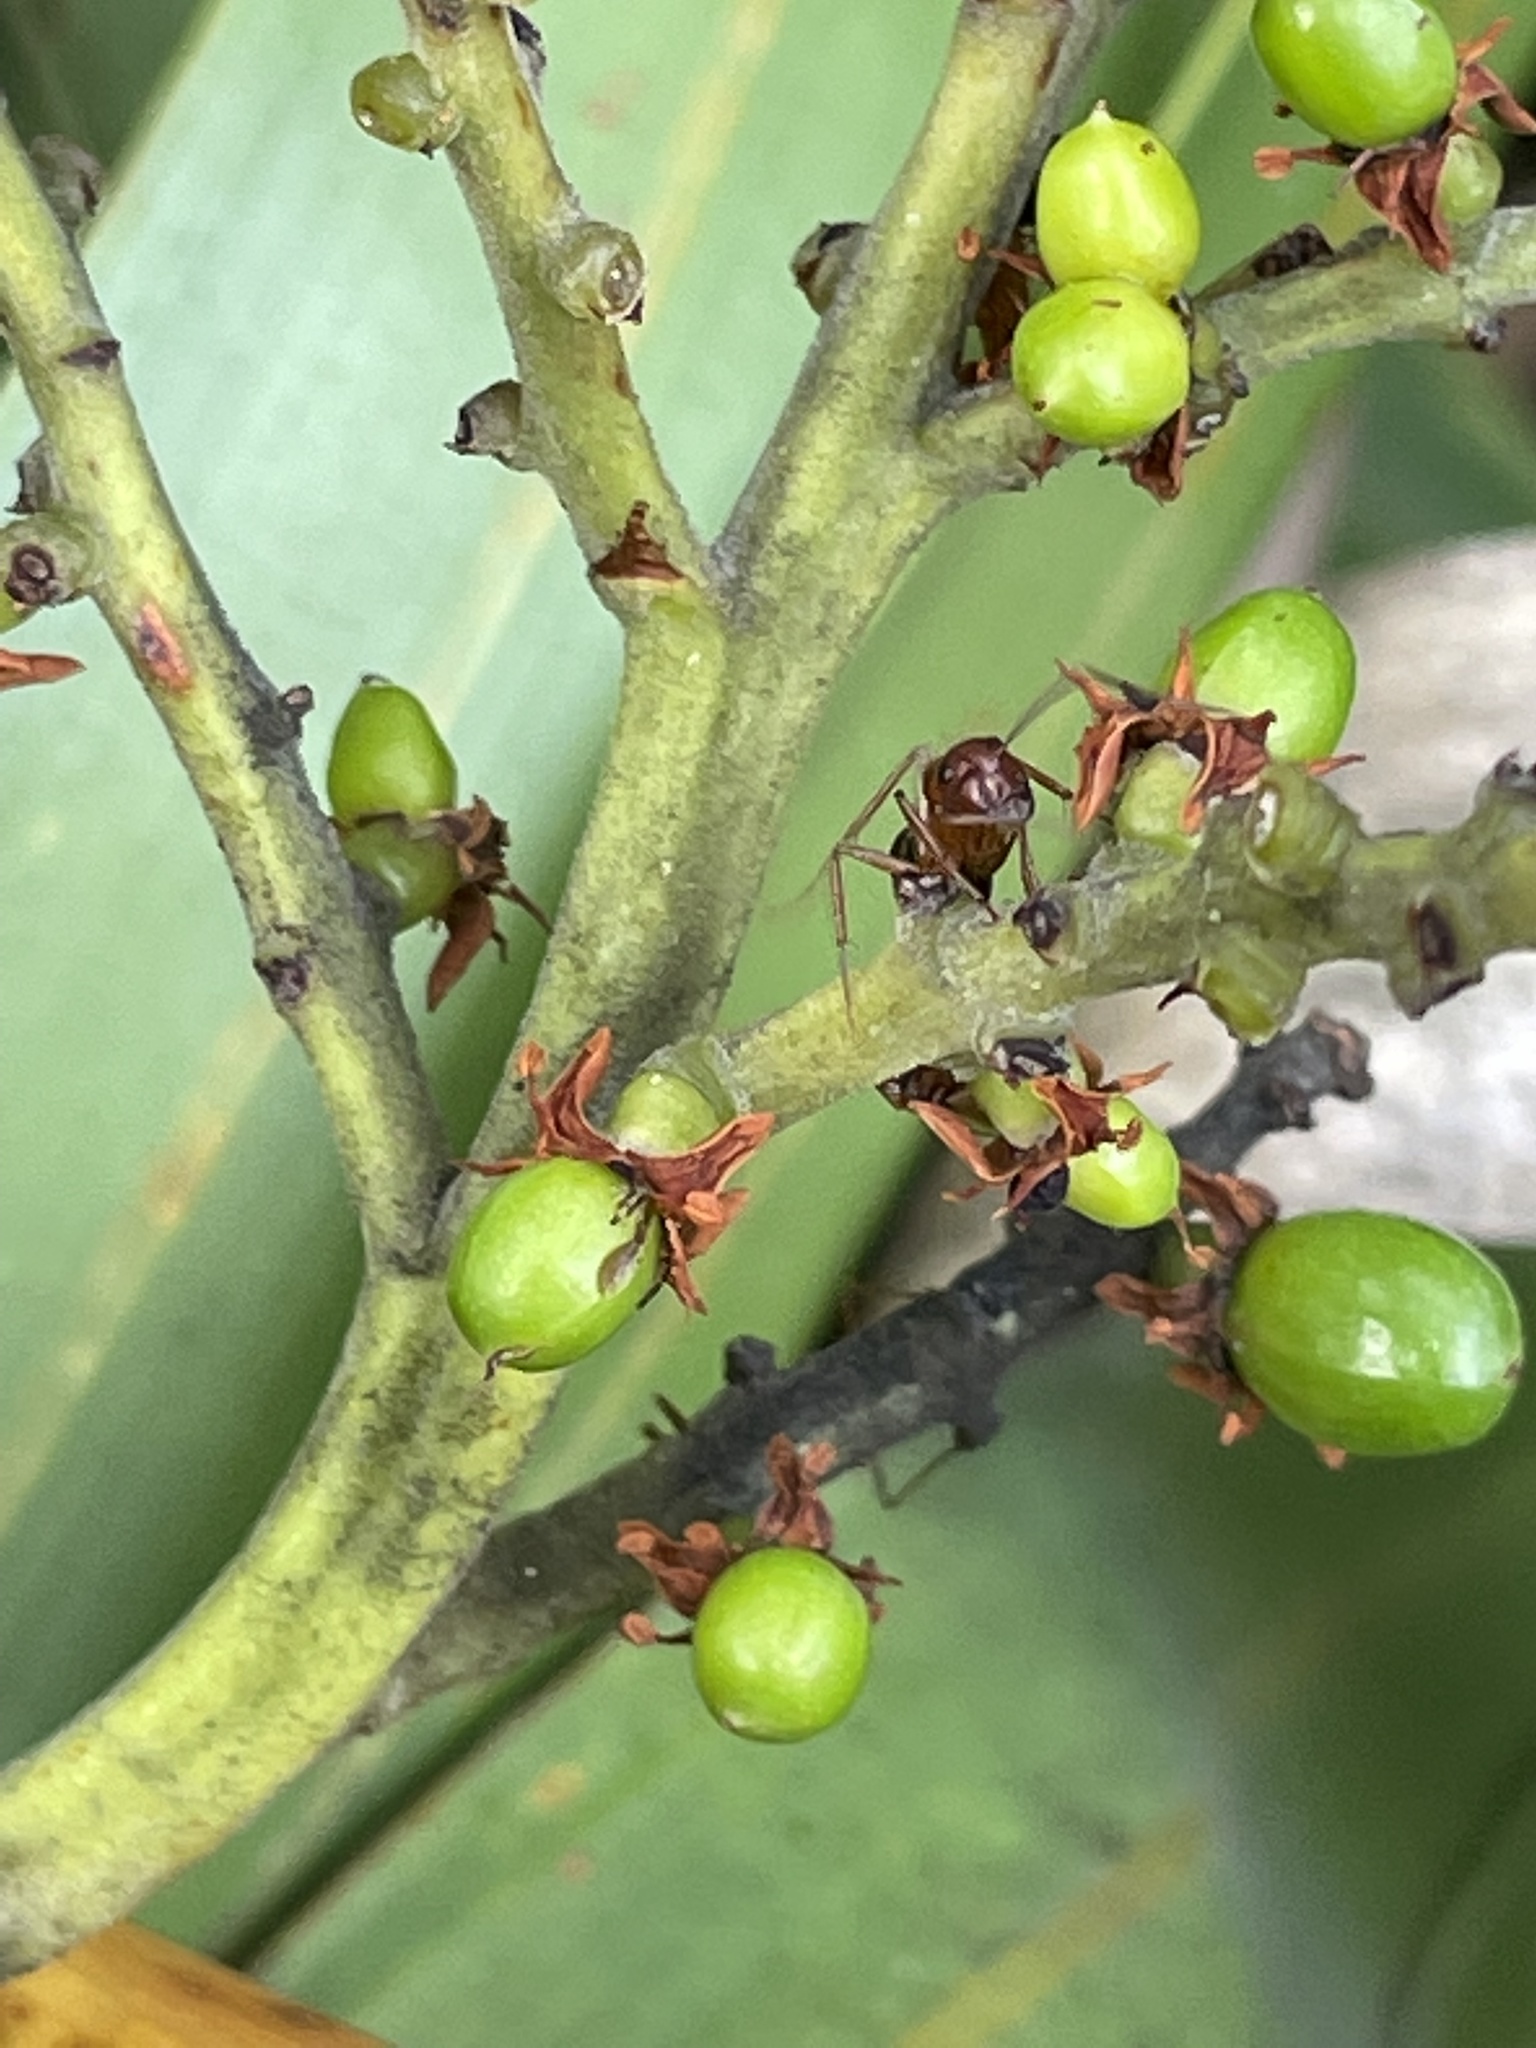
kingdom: Animalia
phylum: Arthropoda
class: Insecta
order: Hymenoptera
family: Formicidae
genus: Camponotus
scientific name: Camponotus floridanus
